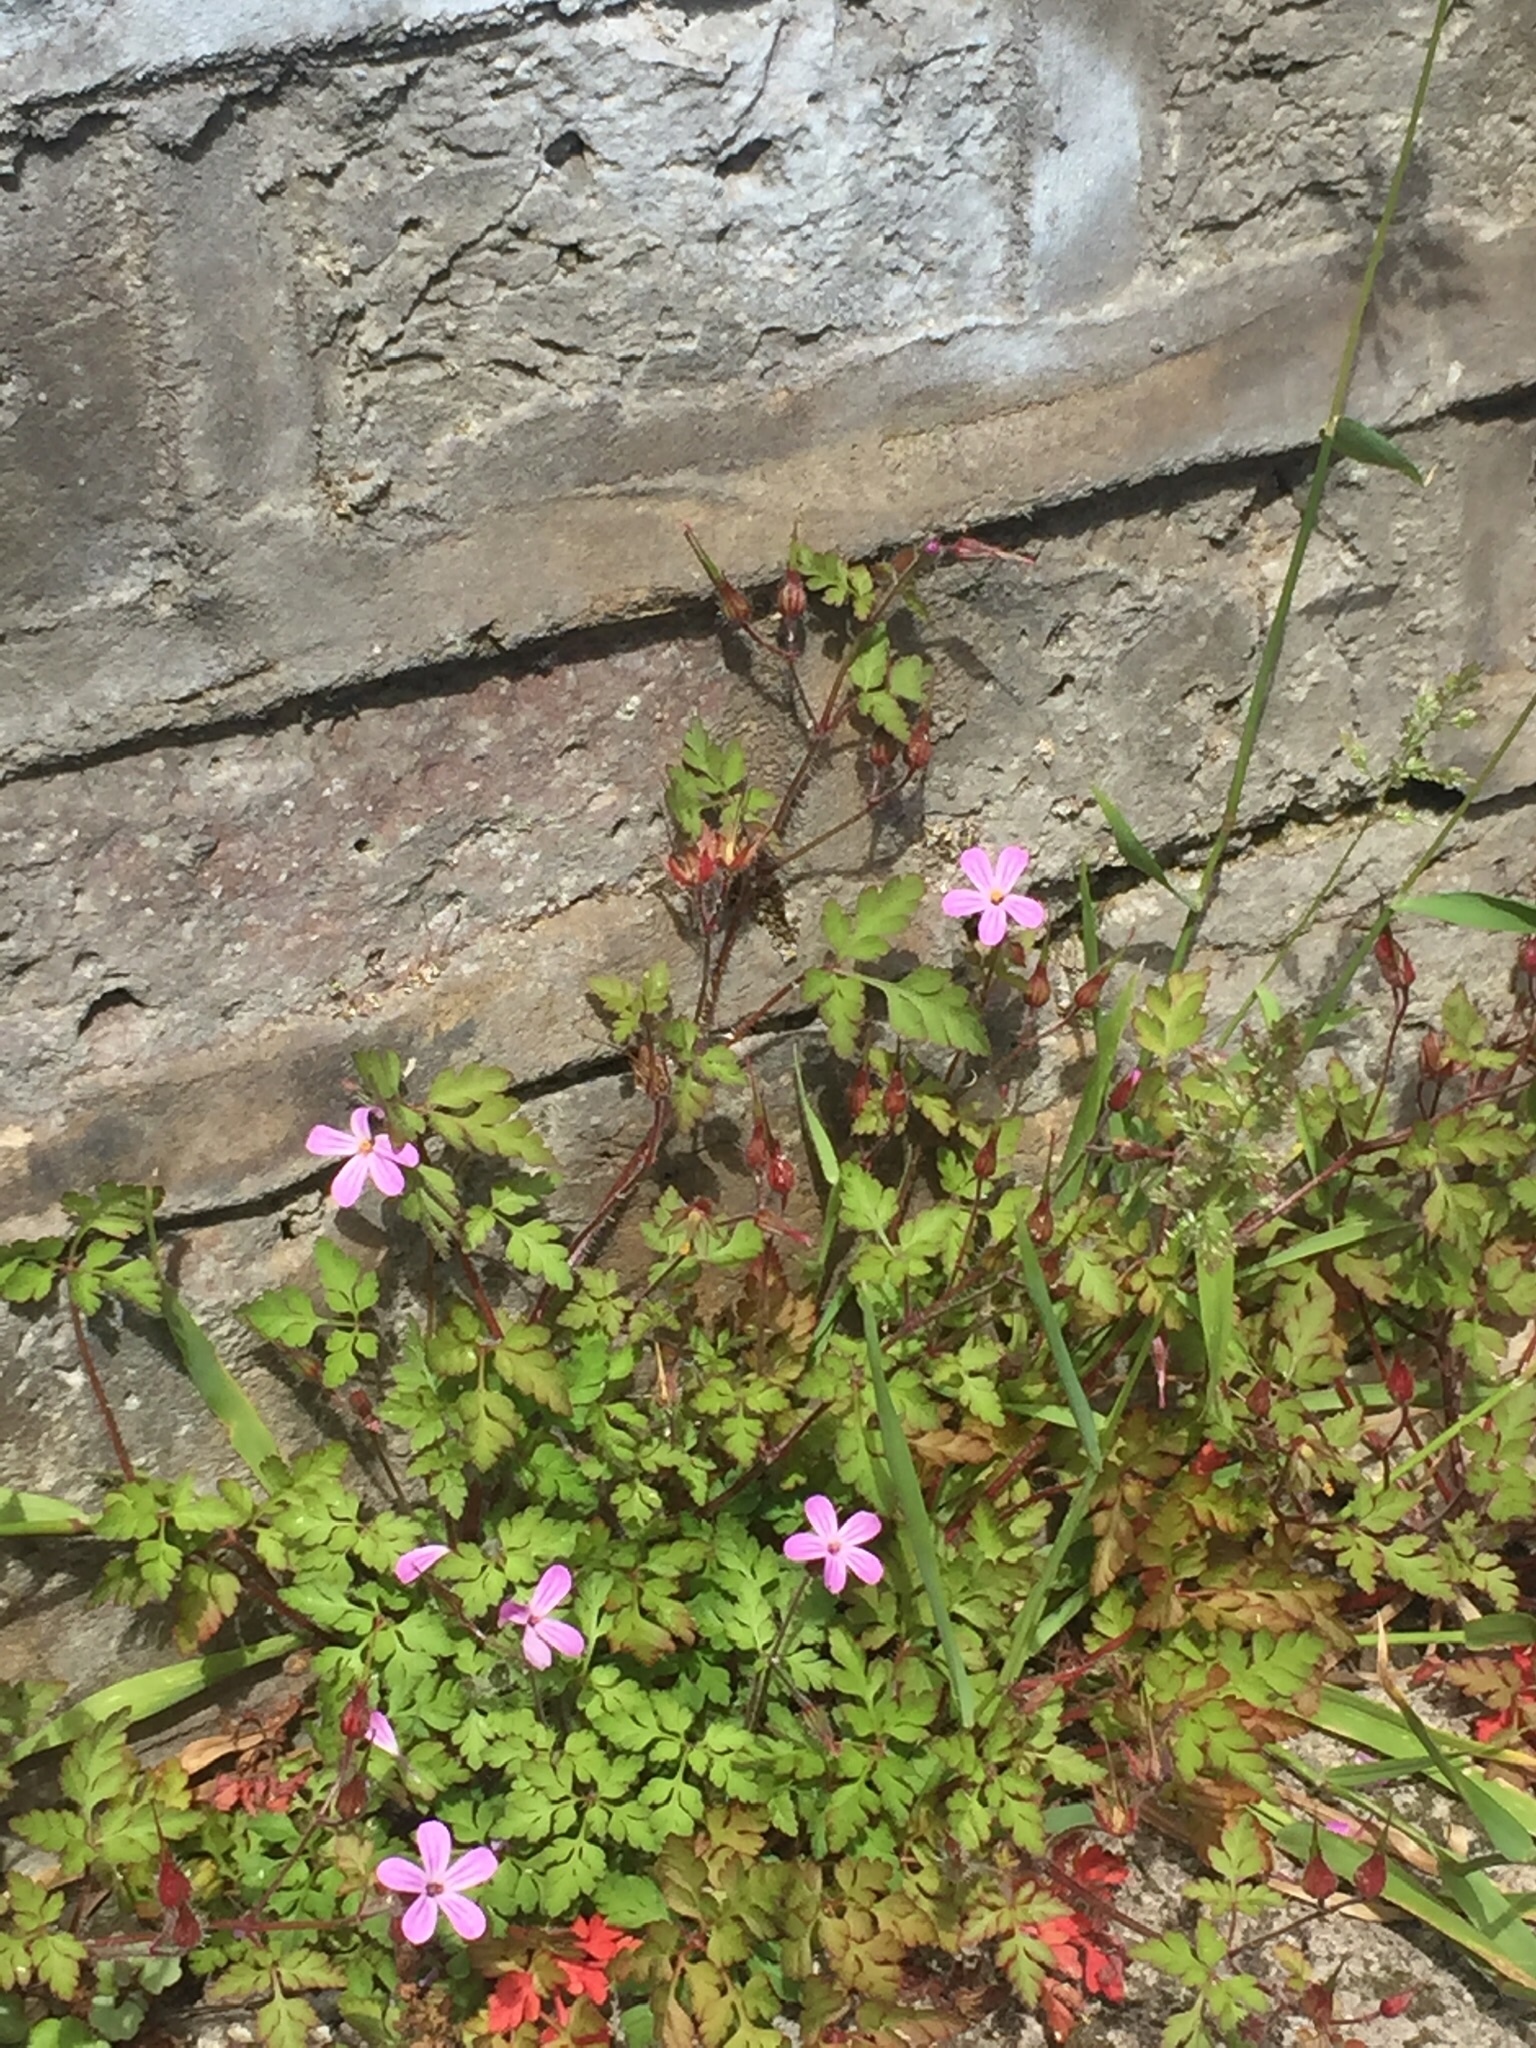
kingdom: Plantae
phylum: Tracheophyta
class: Magnoliopsida
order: Geraniales
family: Geraniaceae
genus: Geranium
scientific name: Geranium robertianum
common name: Herb-robert
